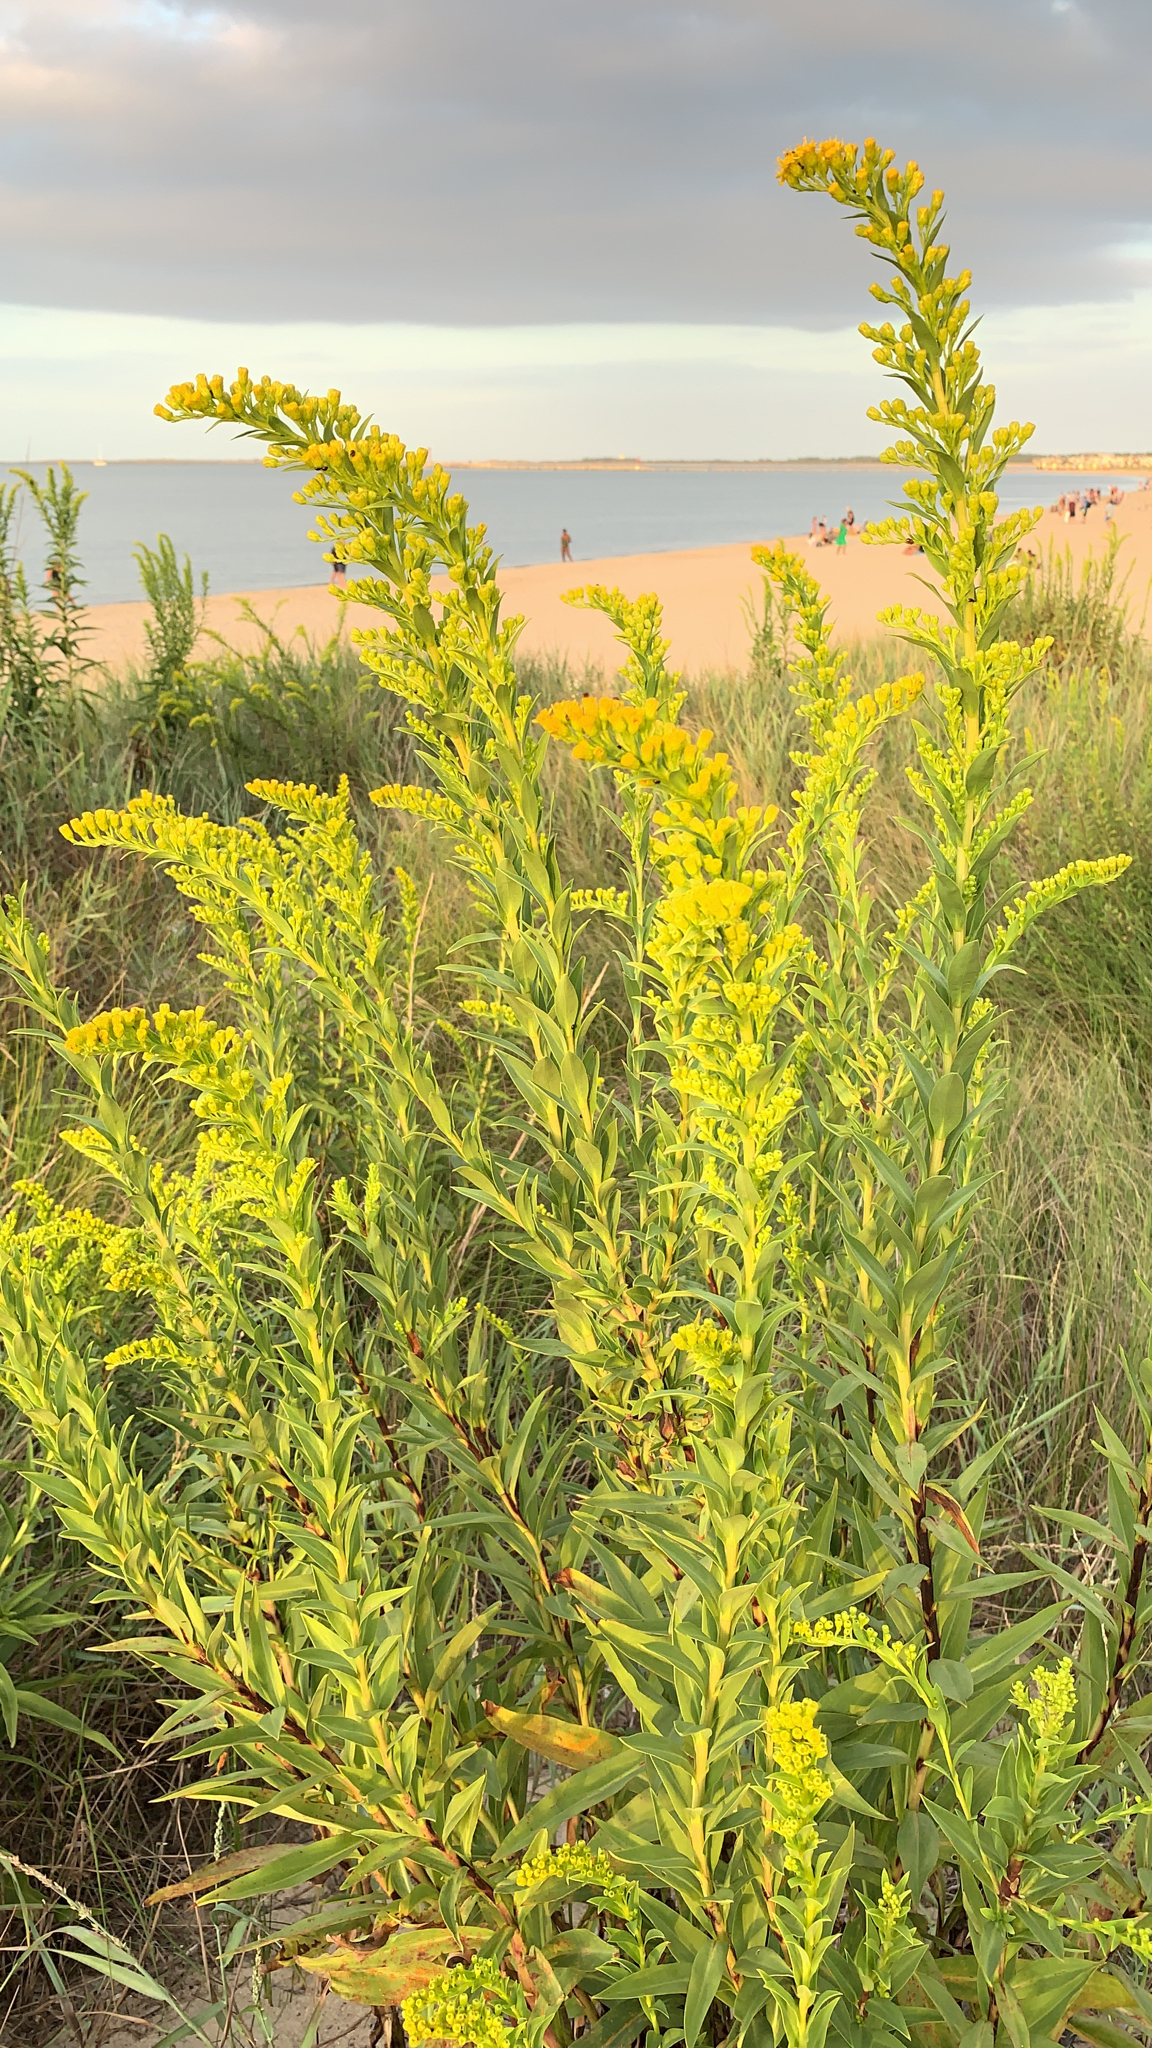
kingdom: Plantae
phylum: Tracheophyta
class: Magnoliopsida
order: Asterales
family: Asteraceae
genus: Solidago
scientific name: Solidago sempervirens
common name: Salt-marsh goldenrod
